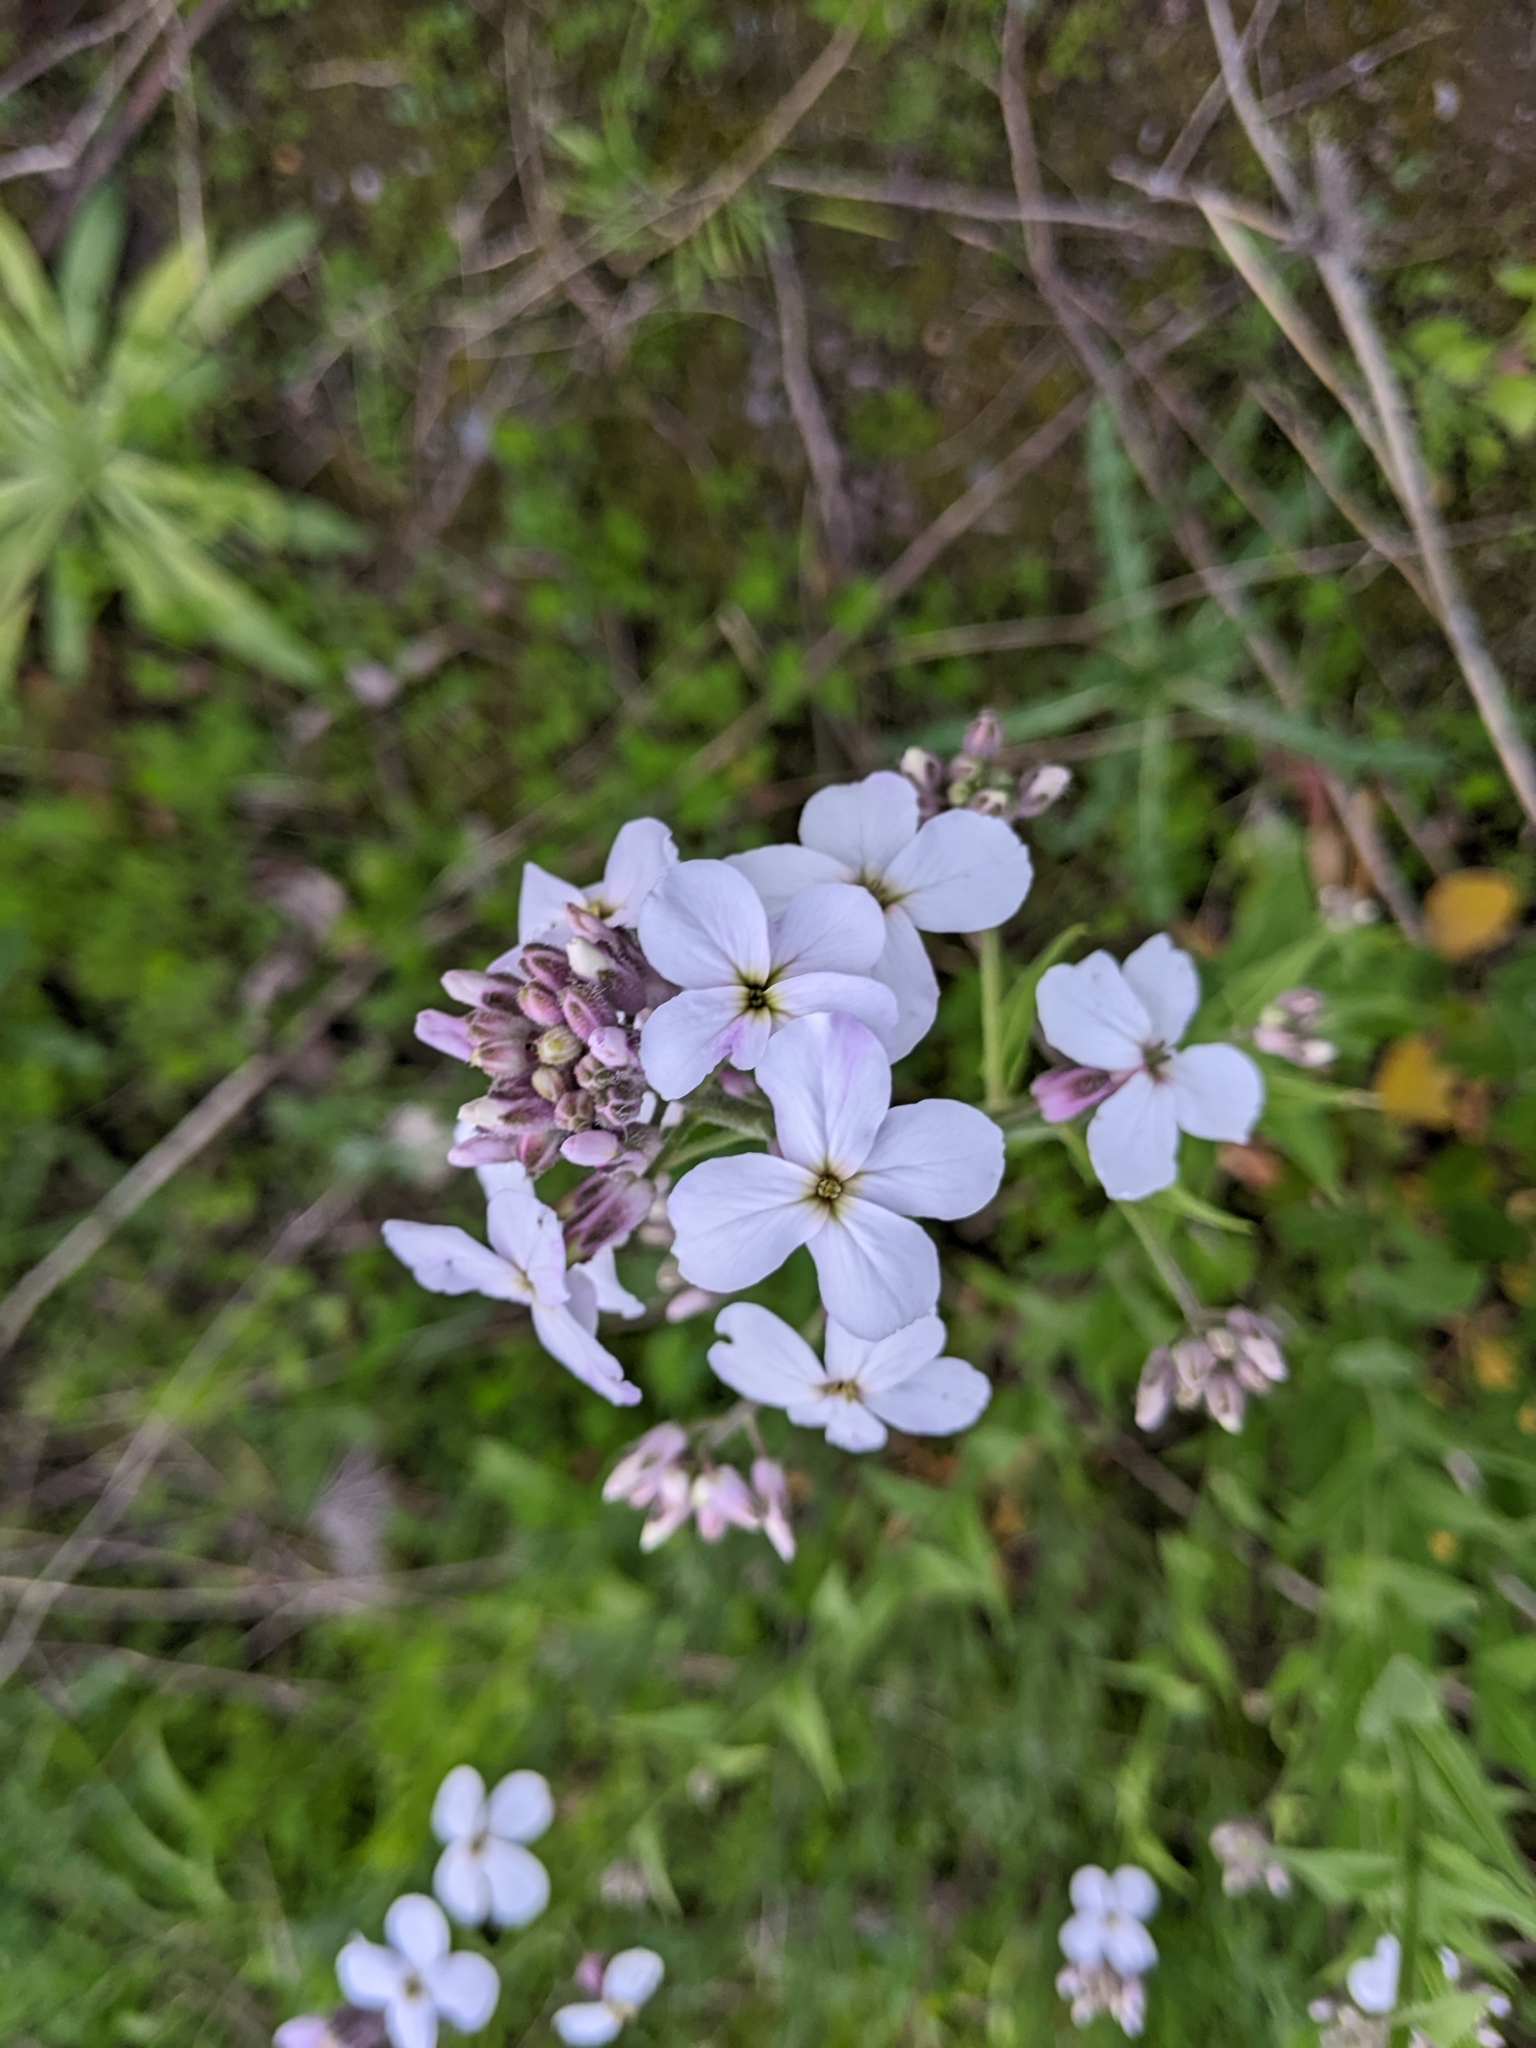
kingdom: Plantae
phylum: Tracheophyta
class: Magnoliopsida
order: Brassicales
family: Brassicaceae
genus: Hesperis
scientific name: Hesperis matronalis
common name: Dame's-violet
